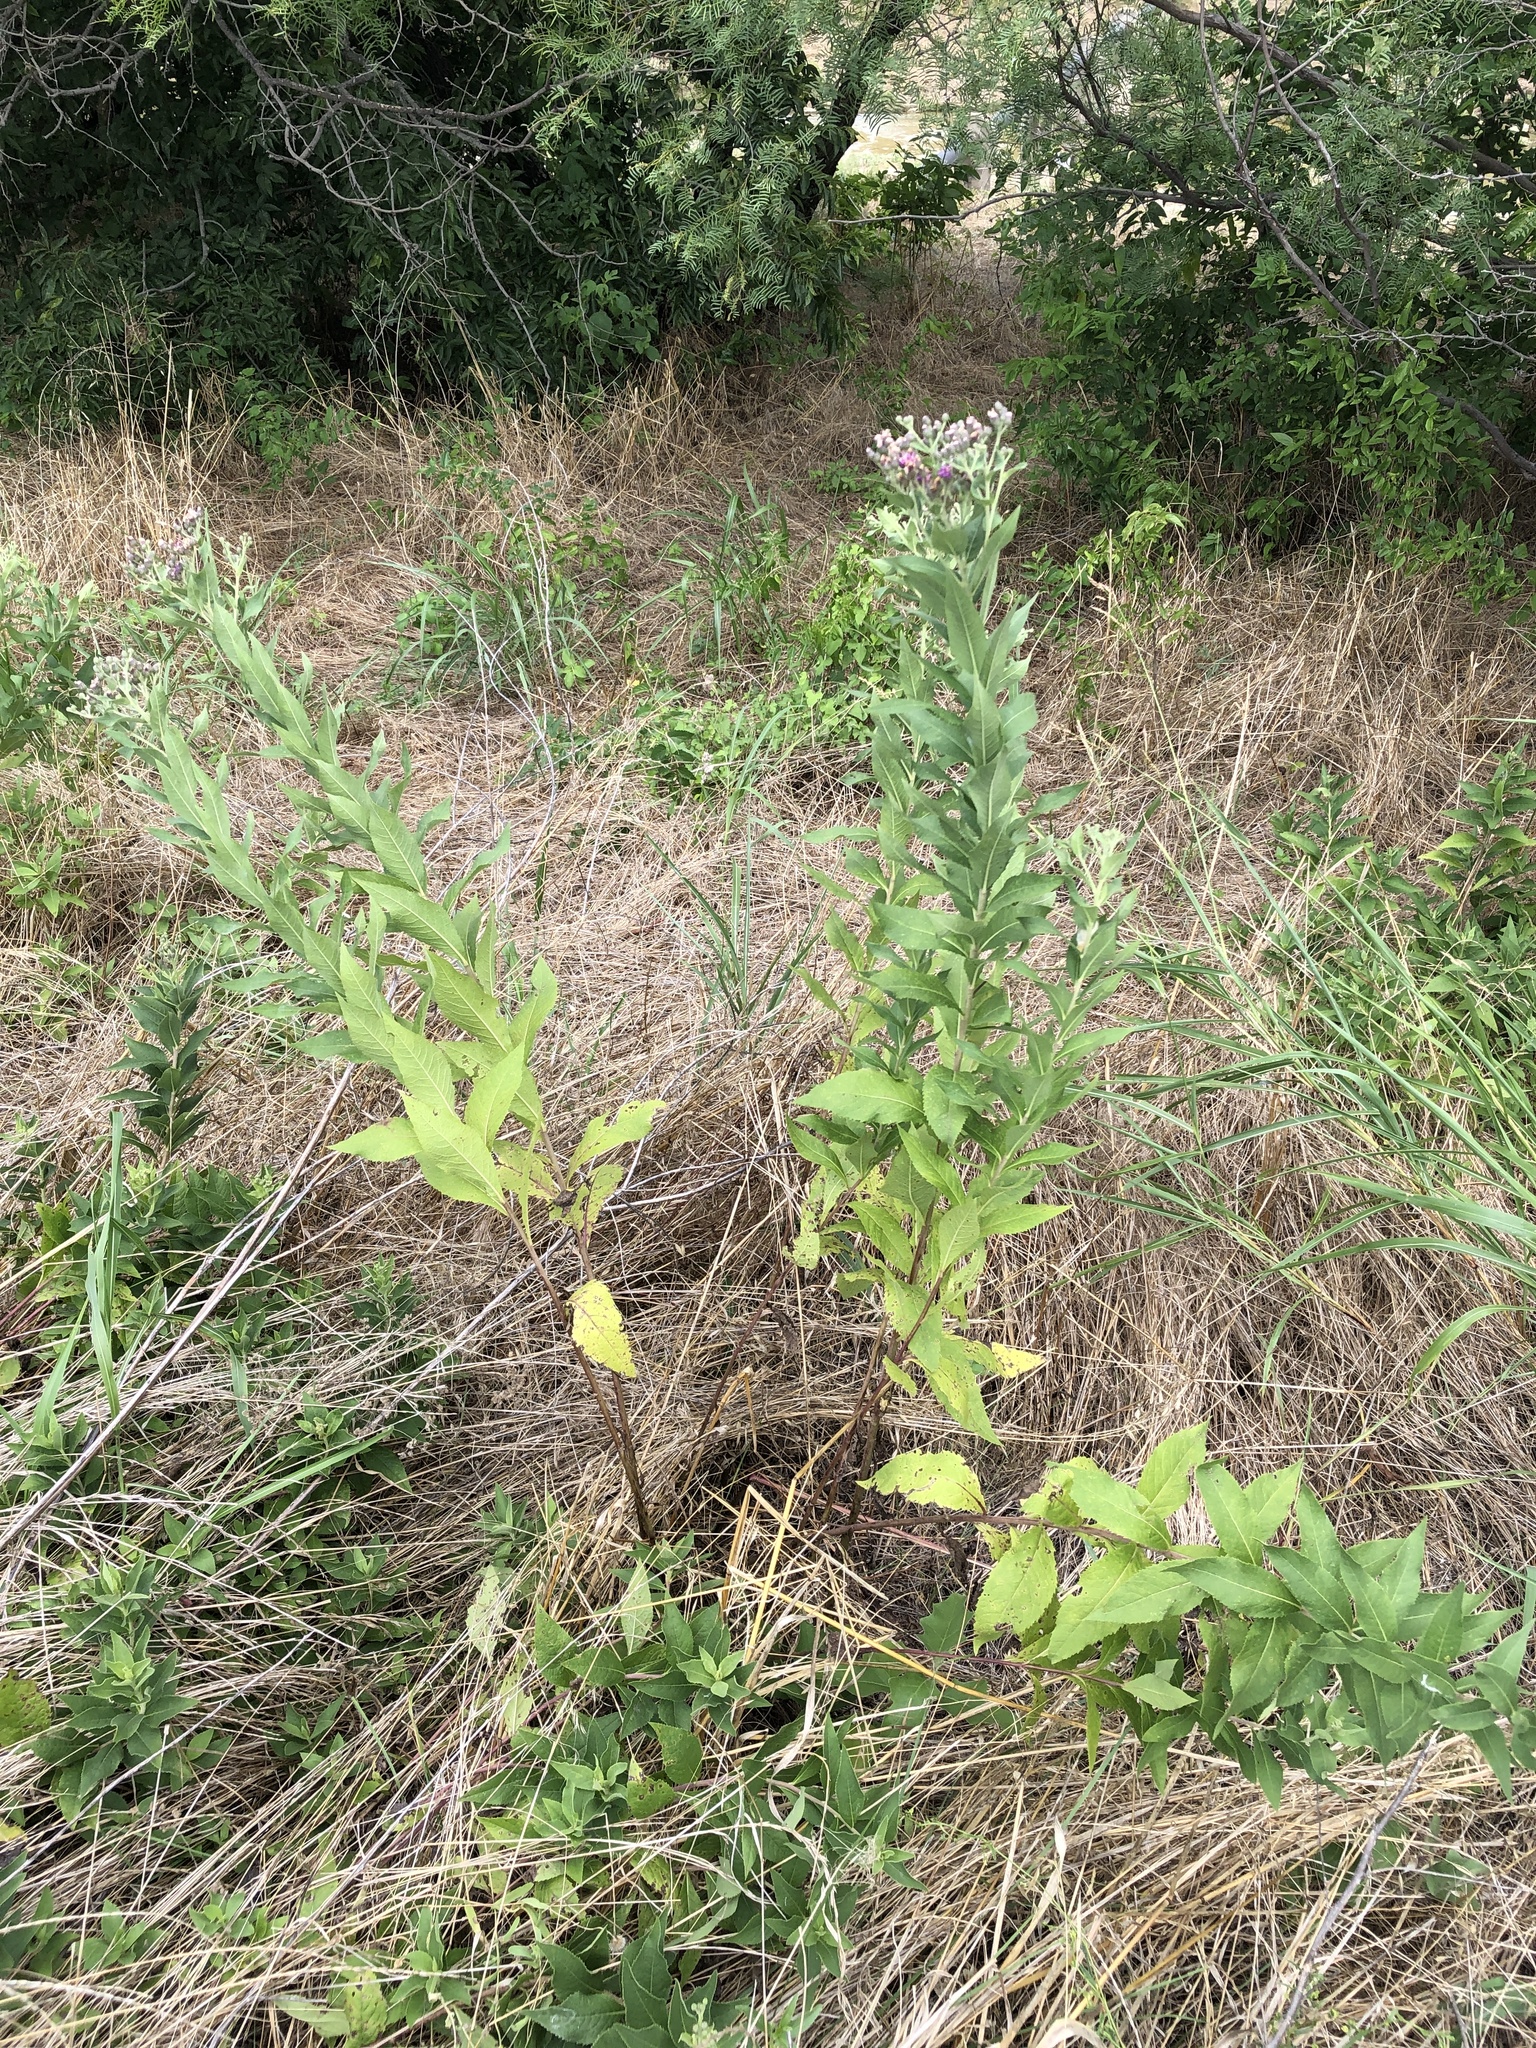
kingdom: Plantae
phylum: Tracheophyta
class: Magnoliopsida
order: Asterales
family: Asteraceae
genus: Vernonia
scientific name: Vernonia baldwinii
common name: Western ironweed
